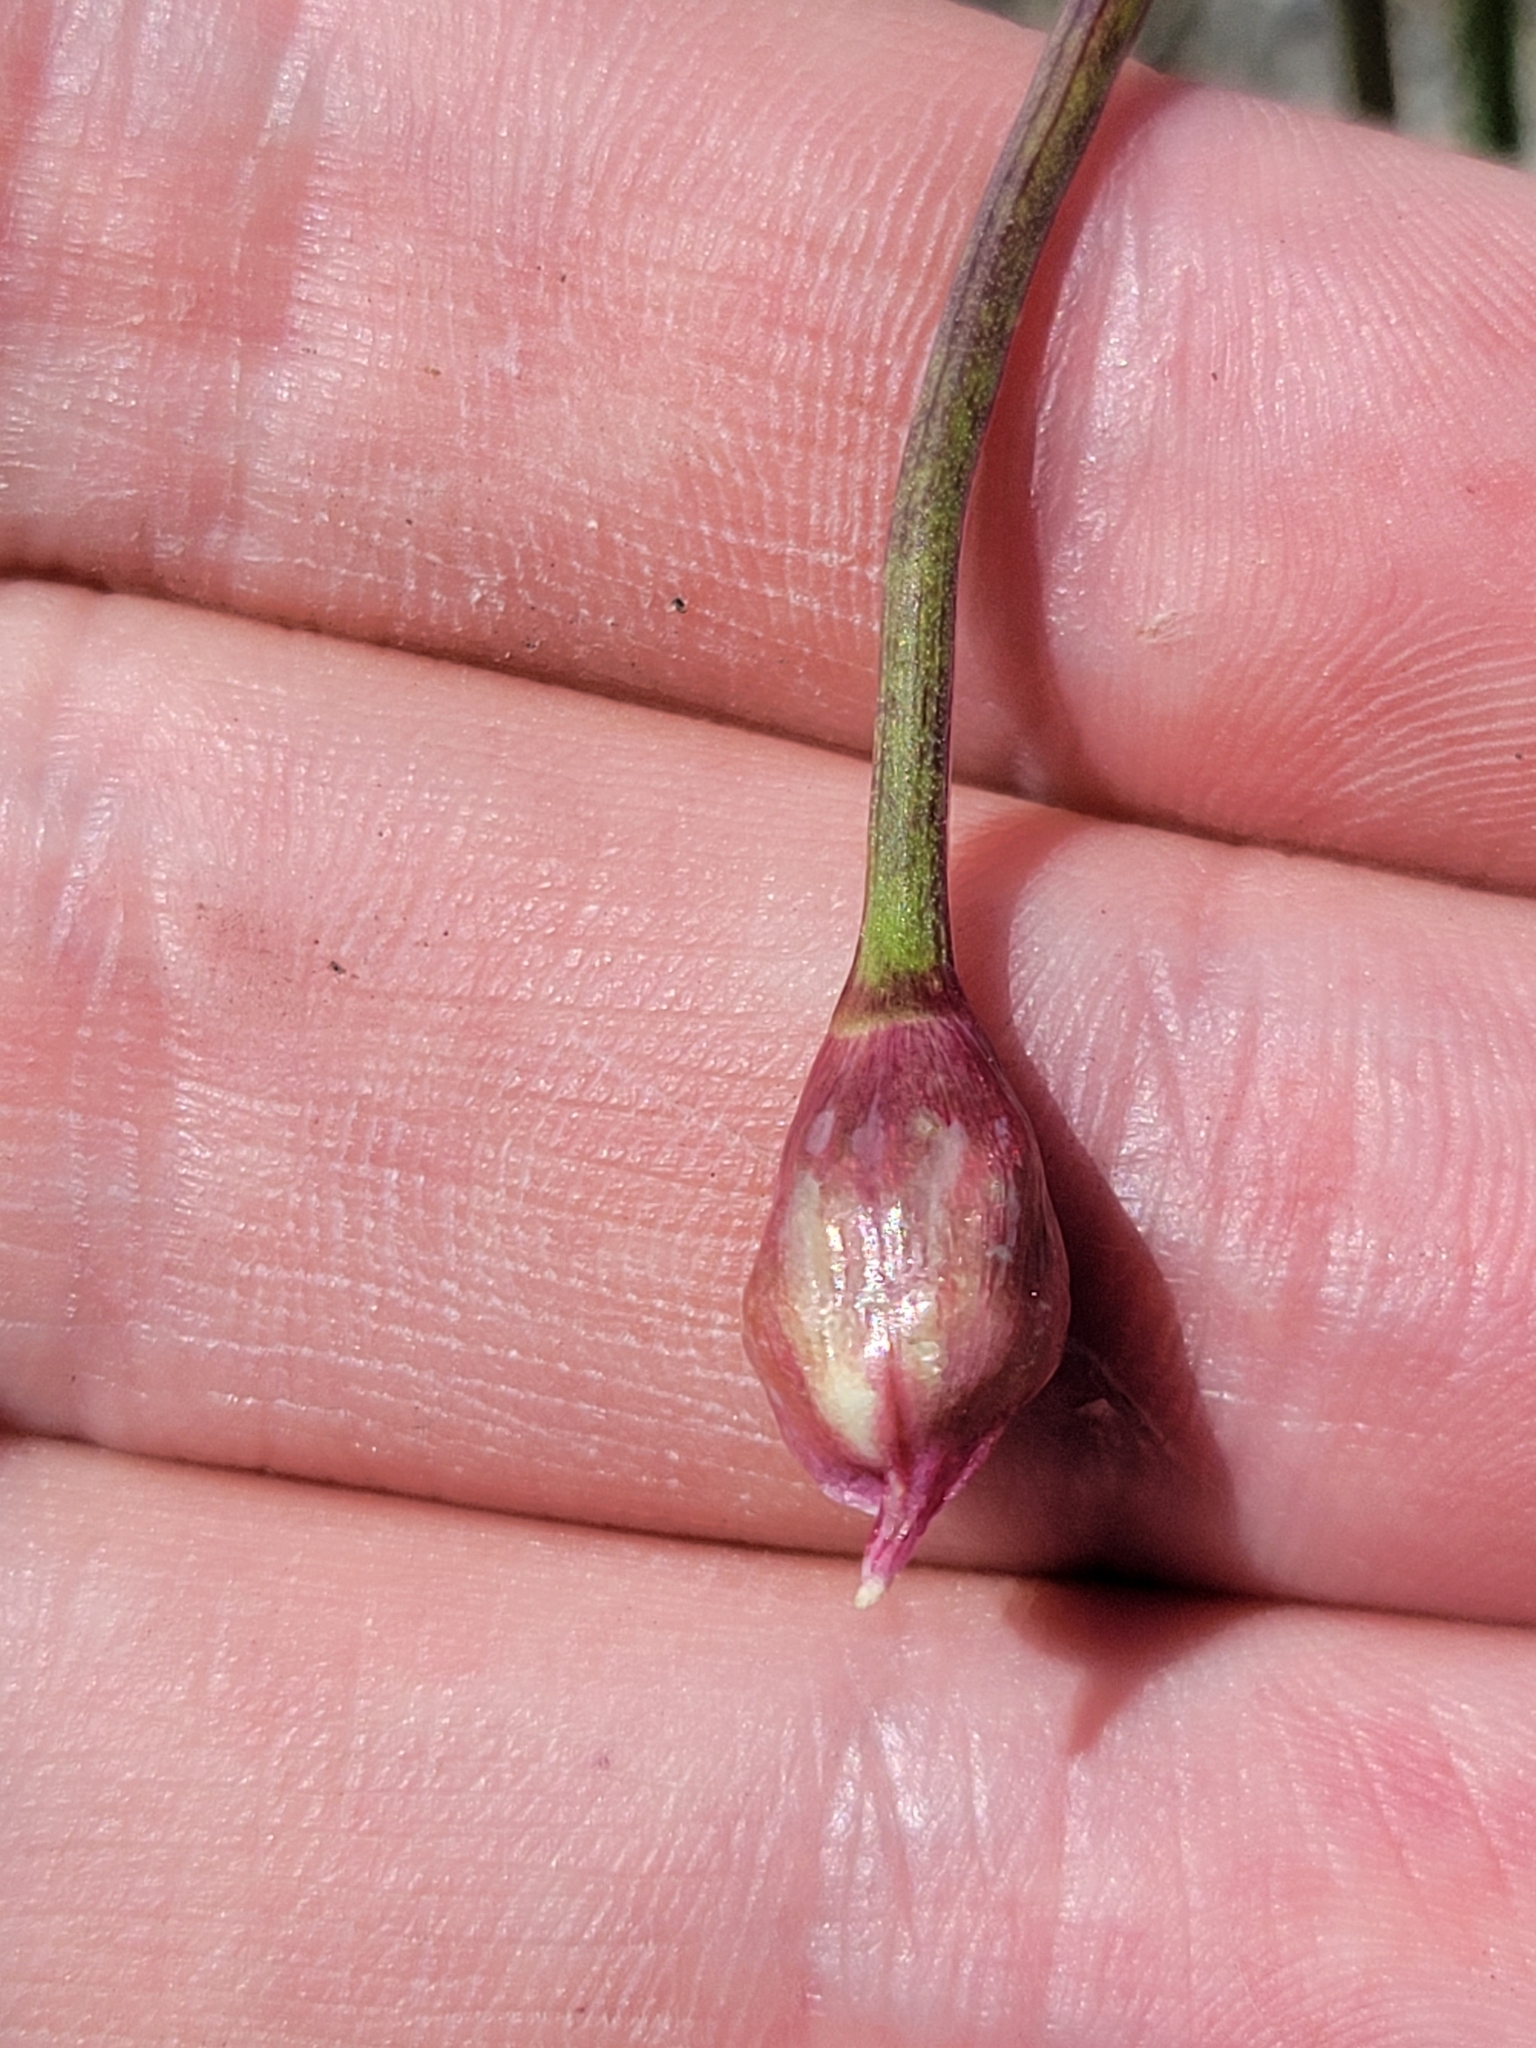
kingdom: Plantae
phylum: Tracheophyta
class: Liliopsida
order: Asparagales
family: Amaryllidaceae
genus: Allium
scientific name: Allium cernuum
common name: Nodding onion
